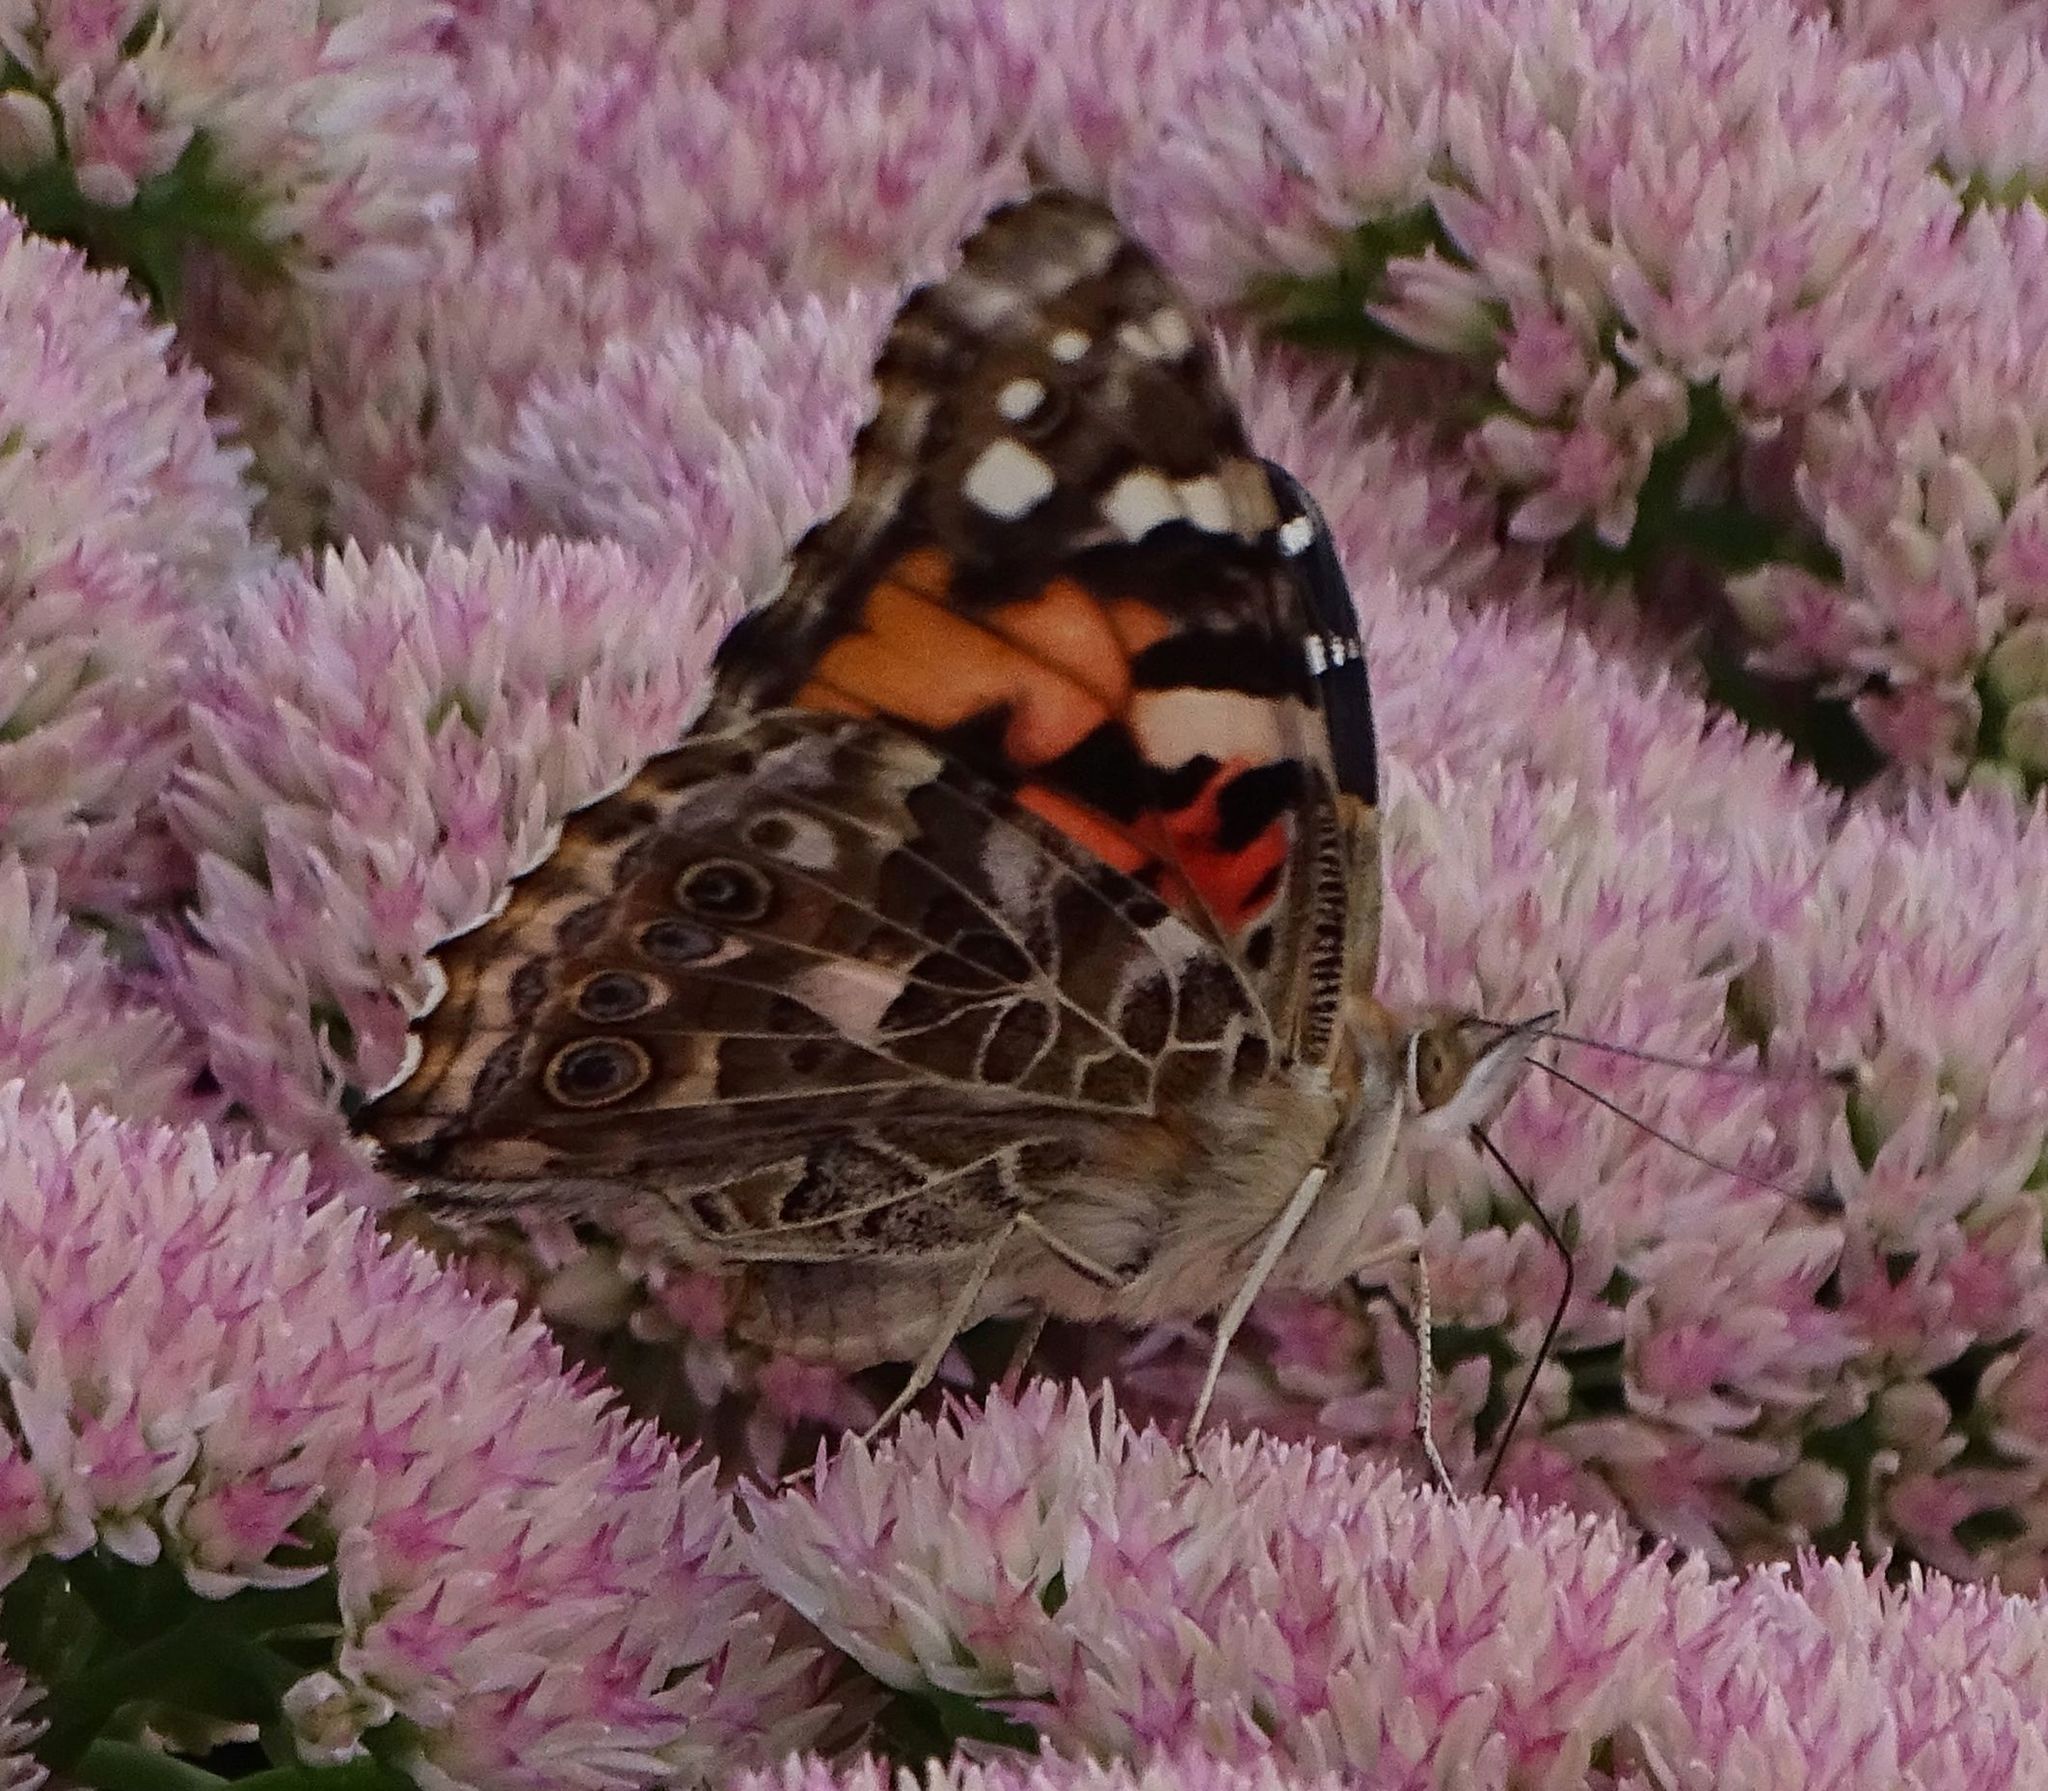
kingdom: Animalia
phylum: Arthropoda
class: Insecta
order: Lepidoptera
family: Nymphalidae
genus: Vanessa
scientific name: Vanessa cardui
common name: Painted lady
